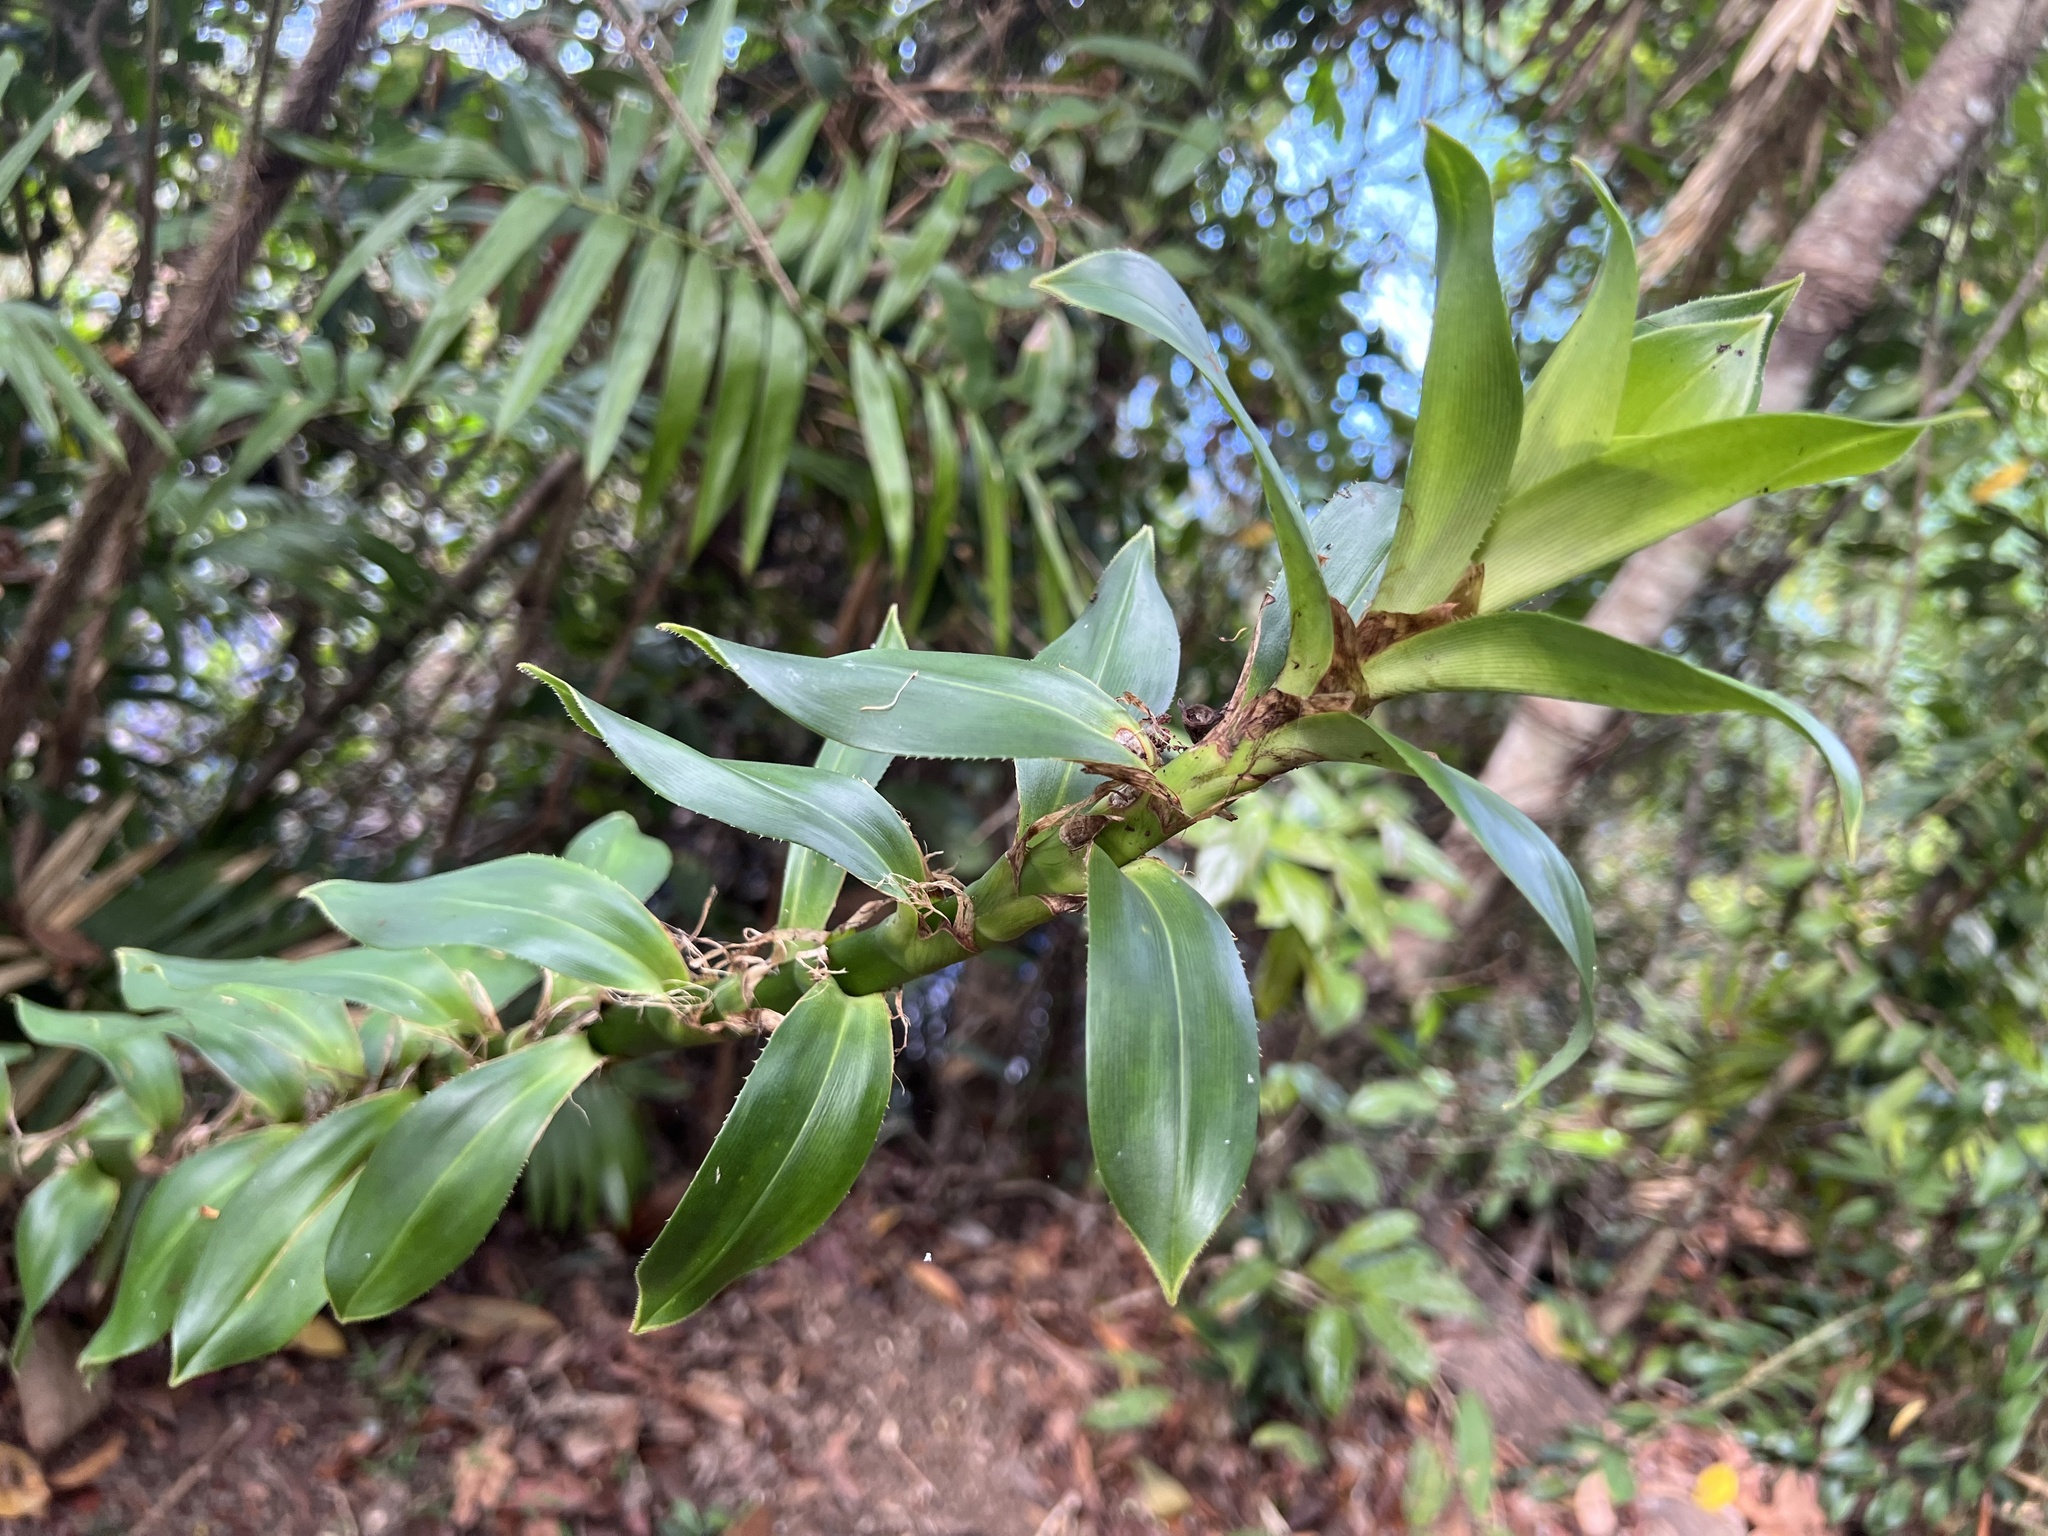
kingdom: Plantae
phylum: Tracheophyta
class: Liliopsida
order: Pandanales
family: Pandanaceae
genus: Freycinetia
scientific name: Freycinetia scandens
